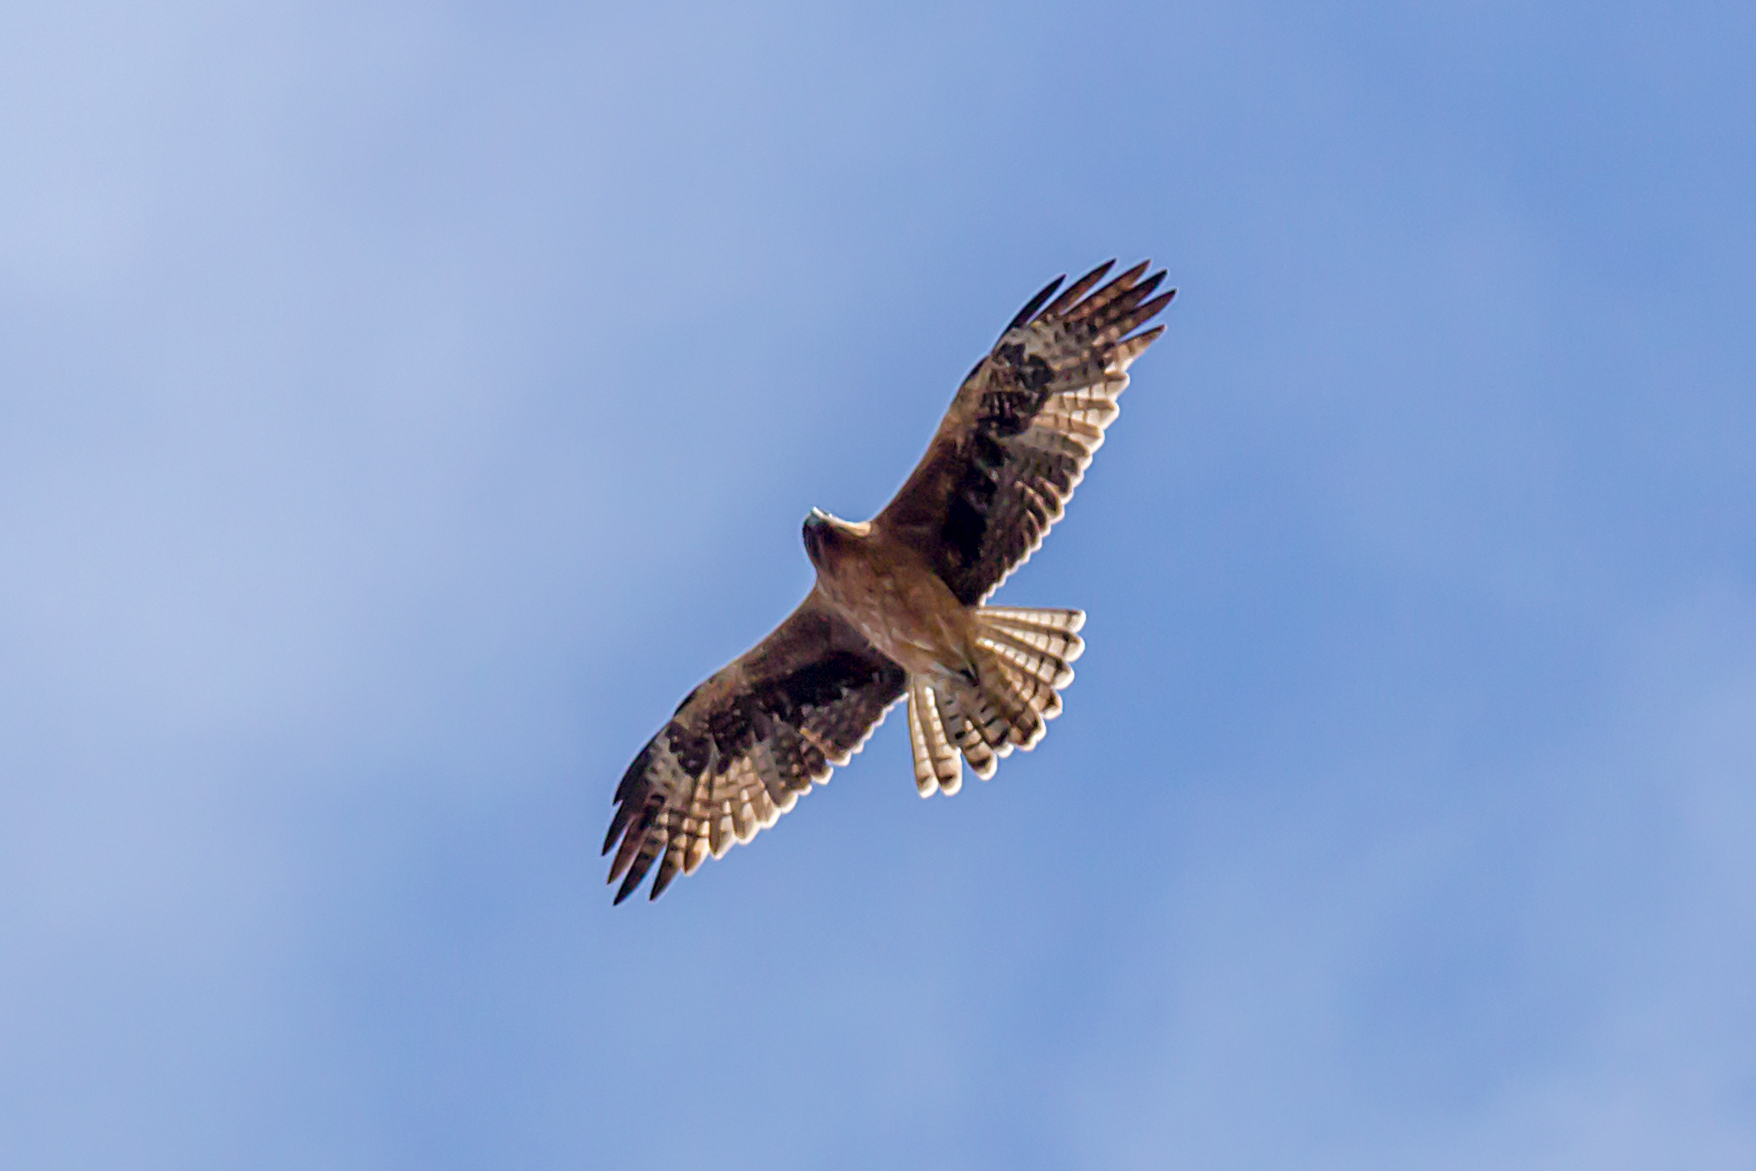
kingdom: Animalia
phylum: Chordata
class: Aves
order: Accipitriformes
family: Accipitridae
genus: Hieraaetus
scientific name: Hieraaetus morphnoides
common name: Little eagle
